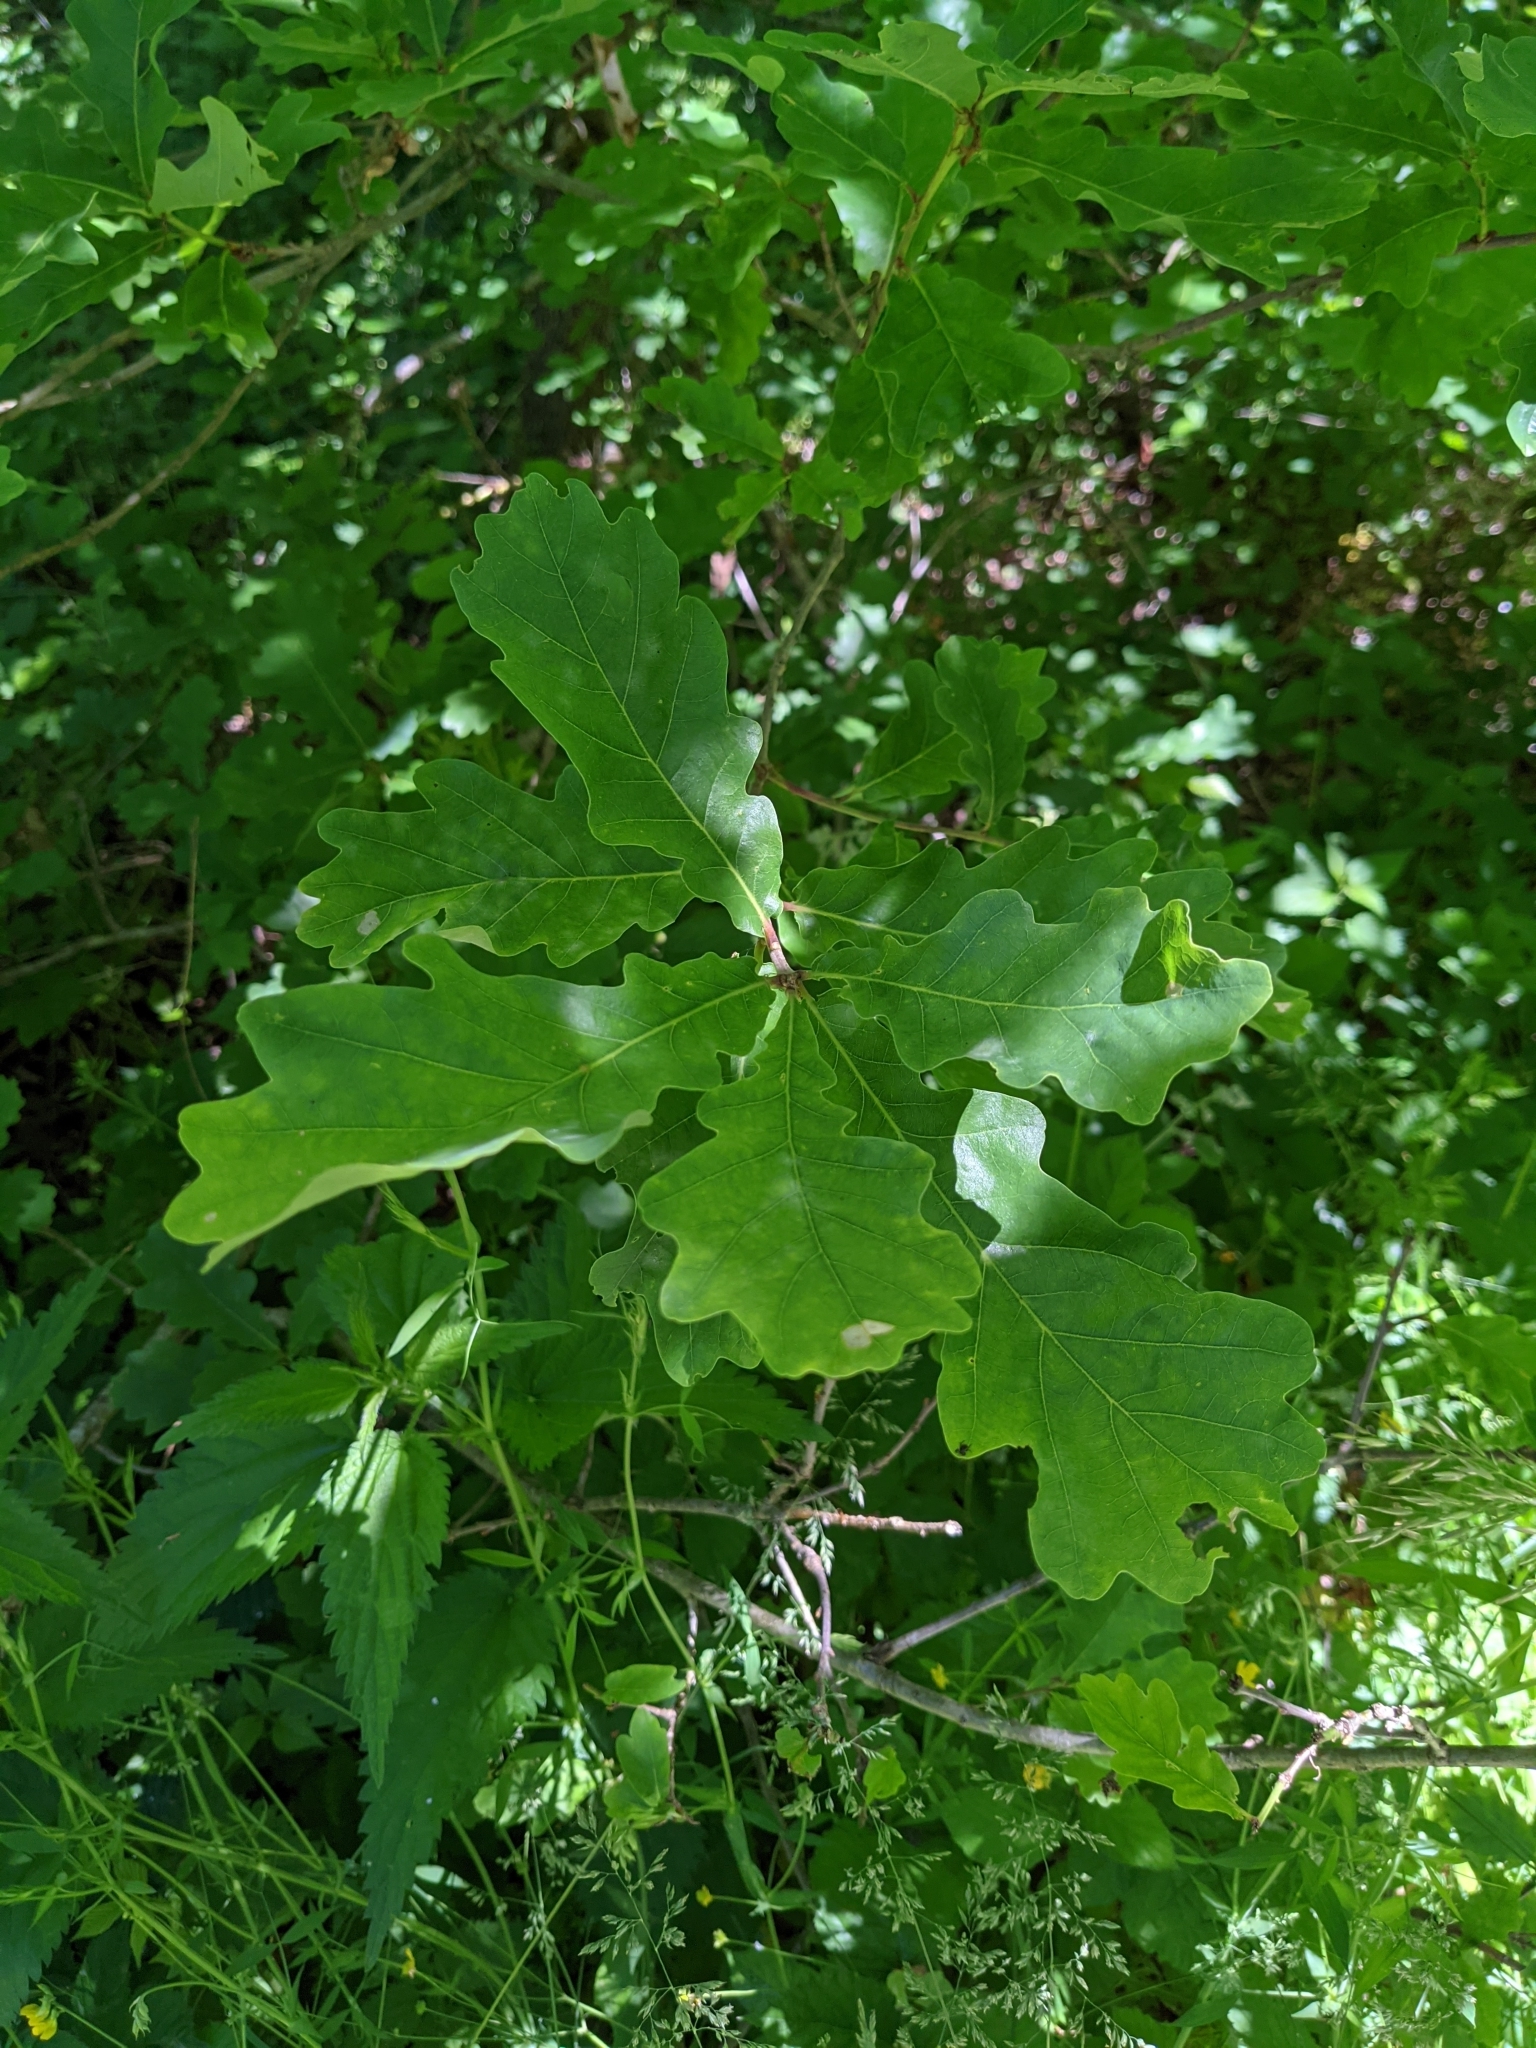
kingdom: Plantae
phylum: Tracheophyta
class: Magnoliopsida
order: Fagales
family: Fagaceae
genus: Quercus
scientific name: Quercus robur
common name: Pedunculate oak
